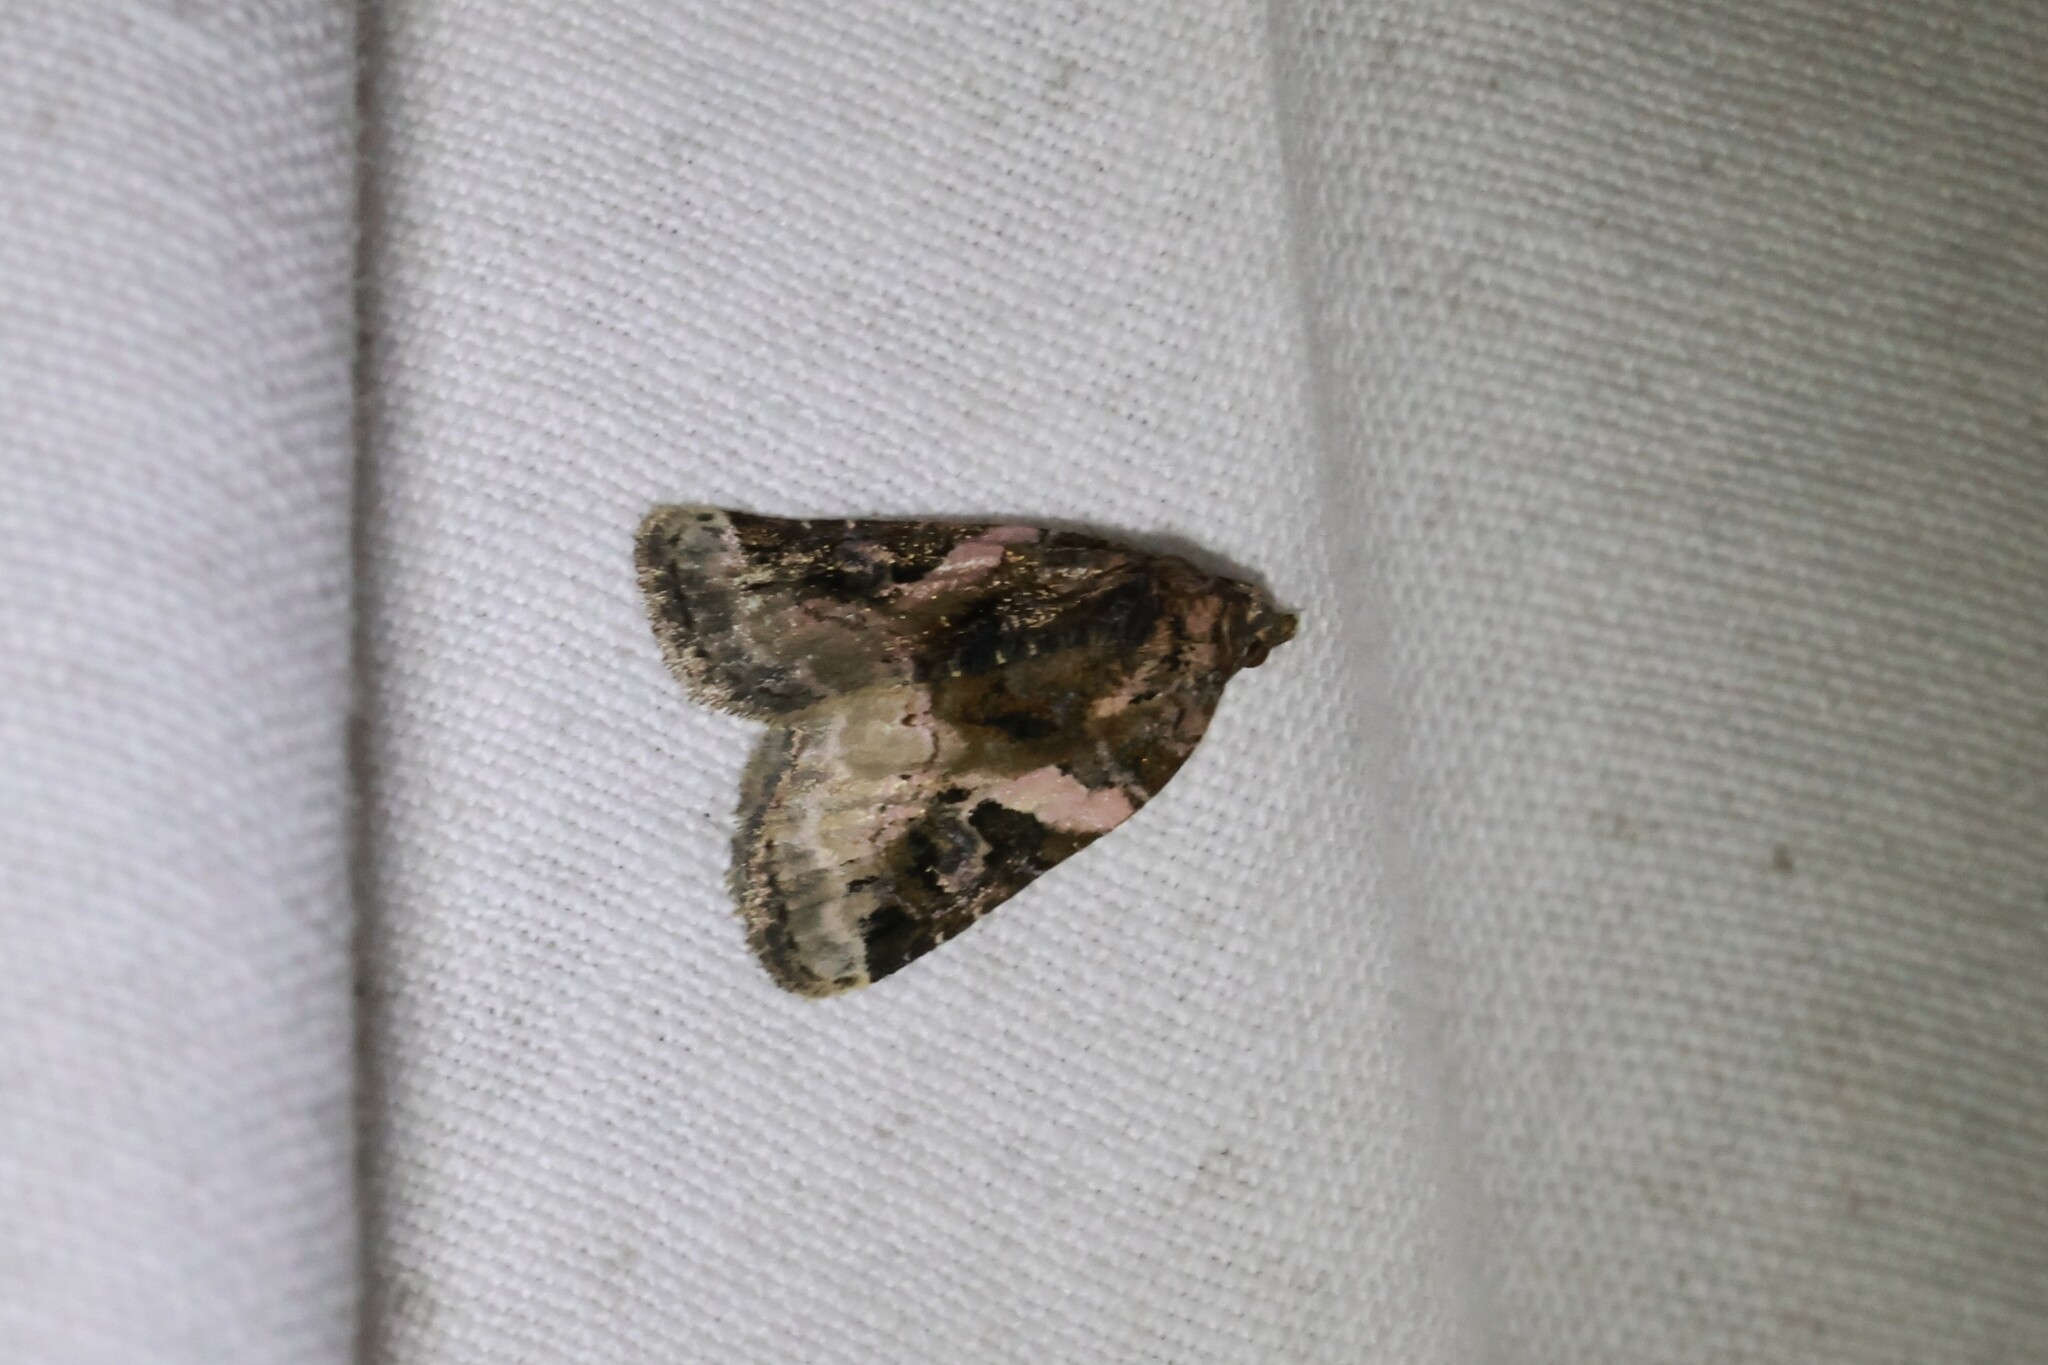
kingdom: Animalia
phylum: Arthropoda
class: Insecta
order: Lepidoptera
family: Noctuidae
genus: Pseudeustrotia
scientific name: Pseudeustrotia carneola
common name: Pink-barred lithacodia moth
